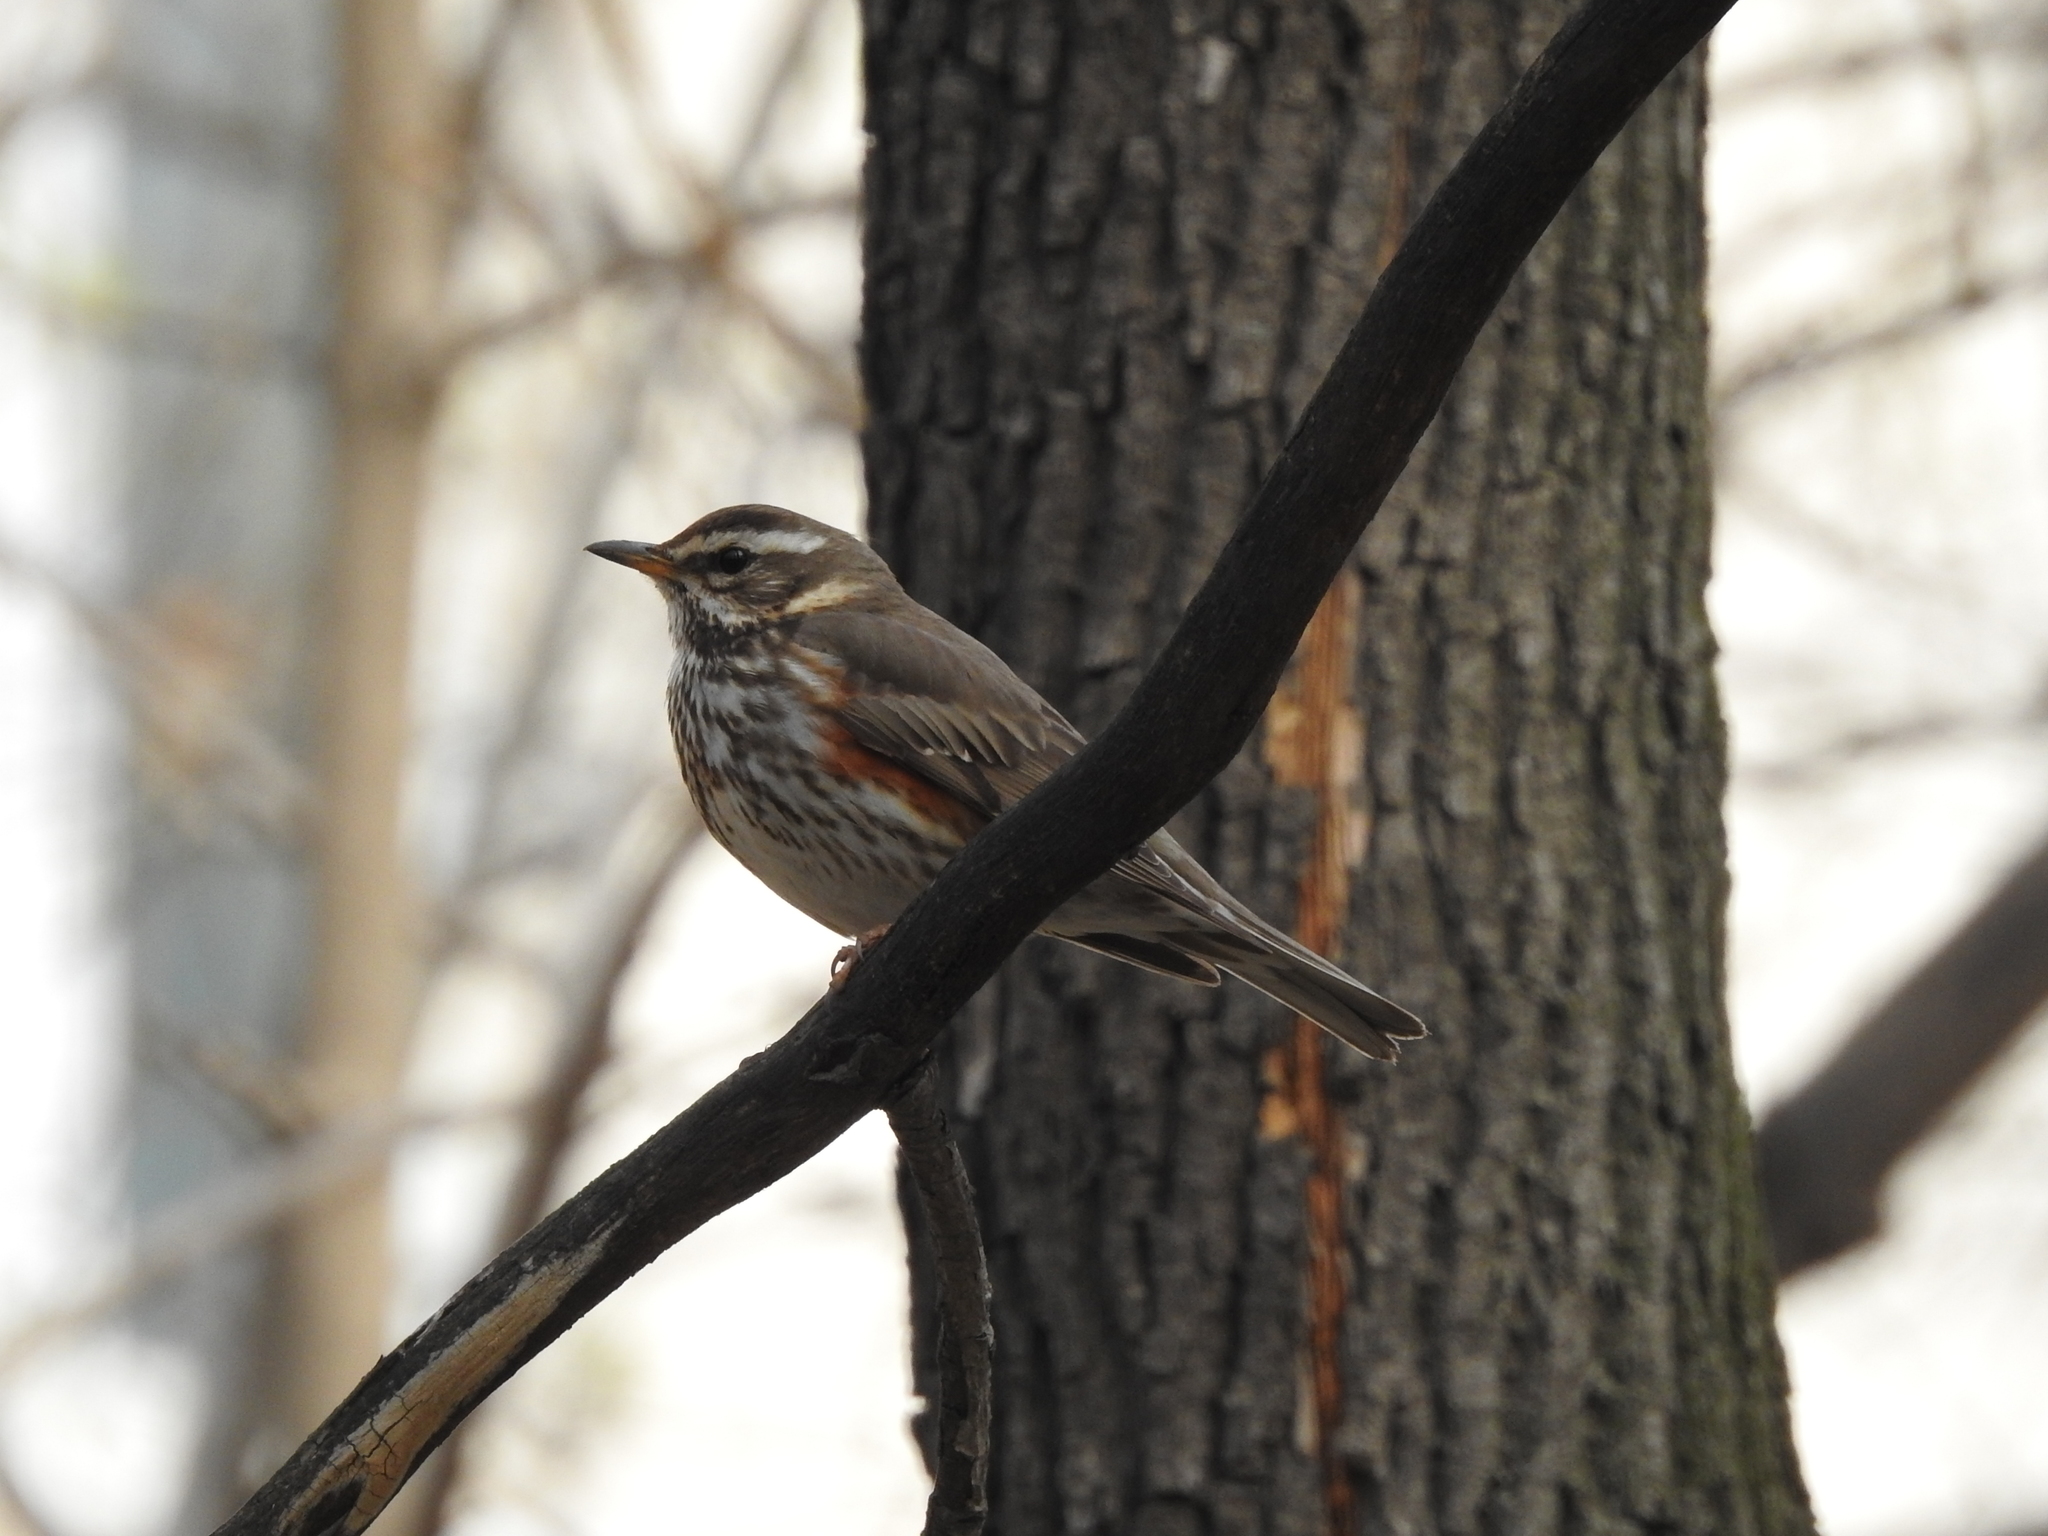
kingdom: Animalia
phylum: Chordata
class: Aves
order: Passeriformes
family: Turdidae
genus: Turdus
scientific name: Turdus iliacus
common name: Redwing
